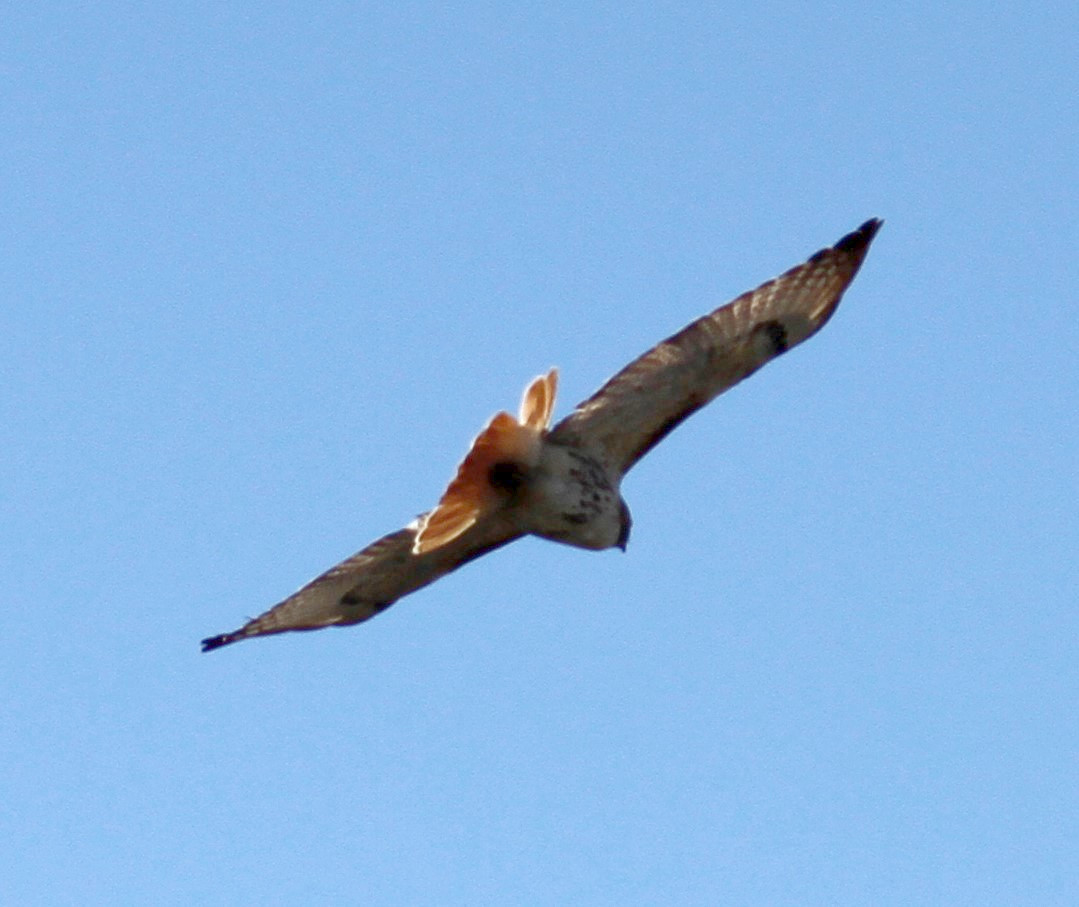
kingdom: Animalia
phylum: Chordata
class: Aves
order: Accipitriformes
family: Accipitridae
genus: Buteo
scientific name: Buteo jamaicensis
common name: Red-tailed hawk
